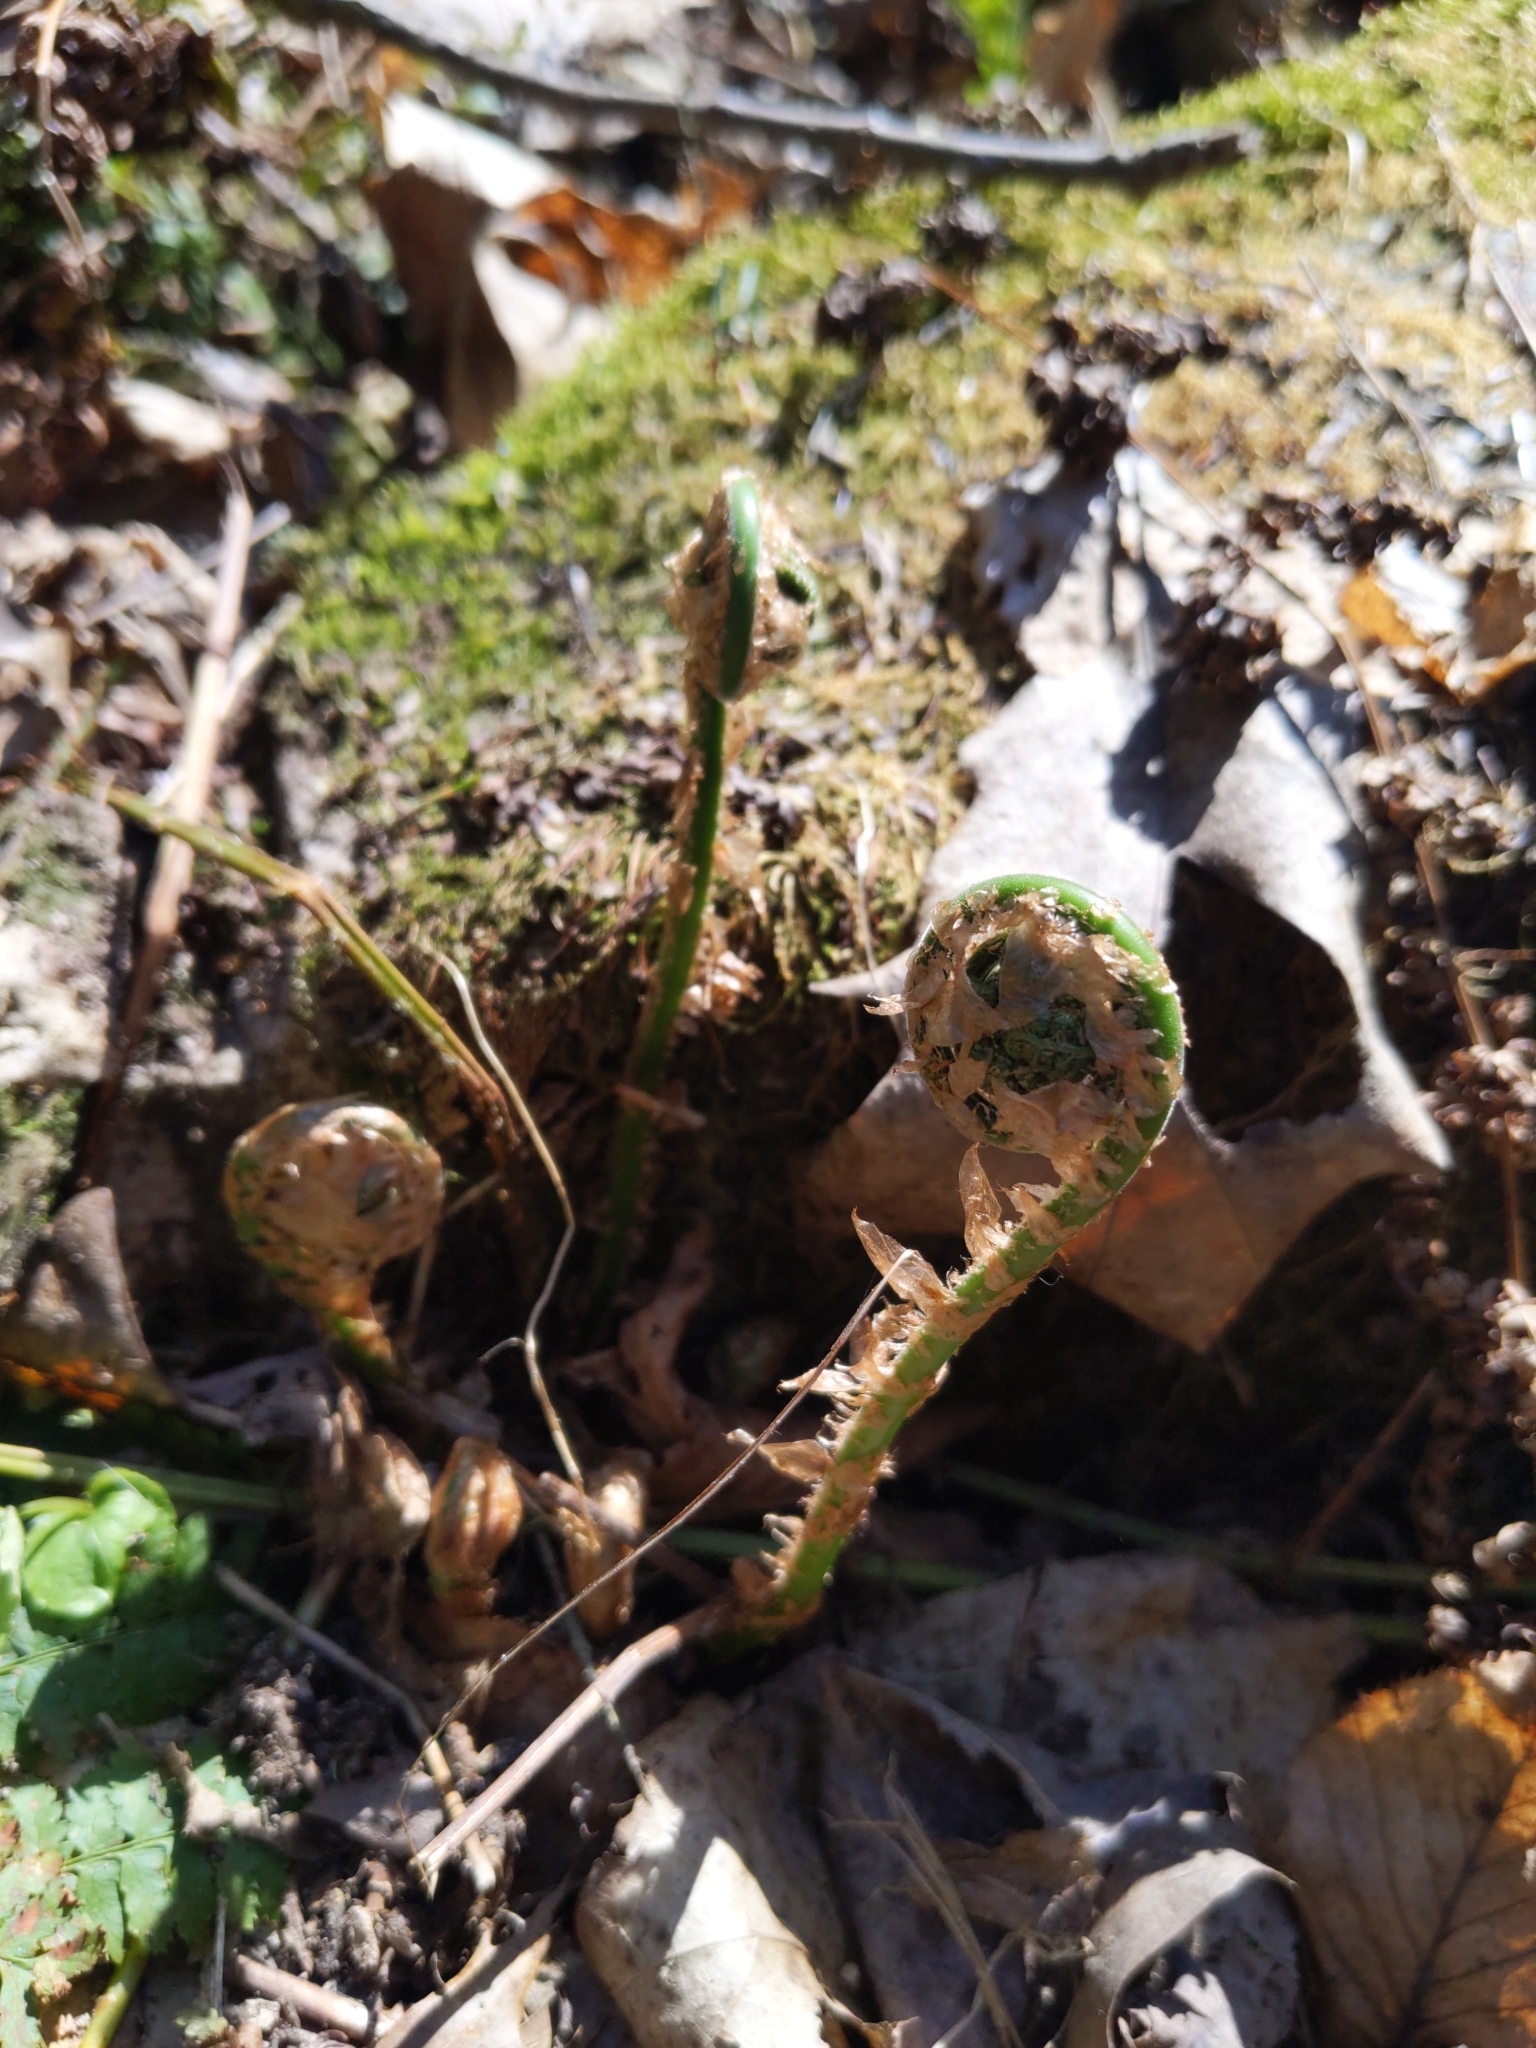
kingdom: Plantae
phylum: Tracheophyta
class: Polypodiopsida
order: Polypodiales
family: Dryopteridaceae
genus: Dryopteris
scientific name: Dryopteris intermedia
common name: Evergreen wood fern
